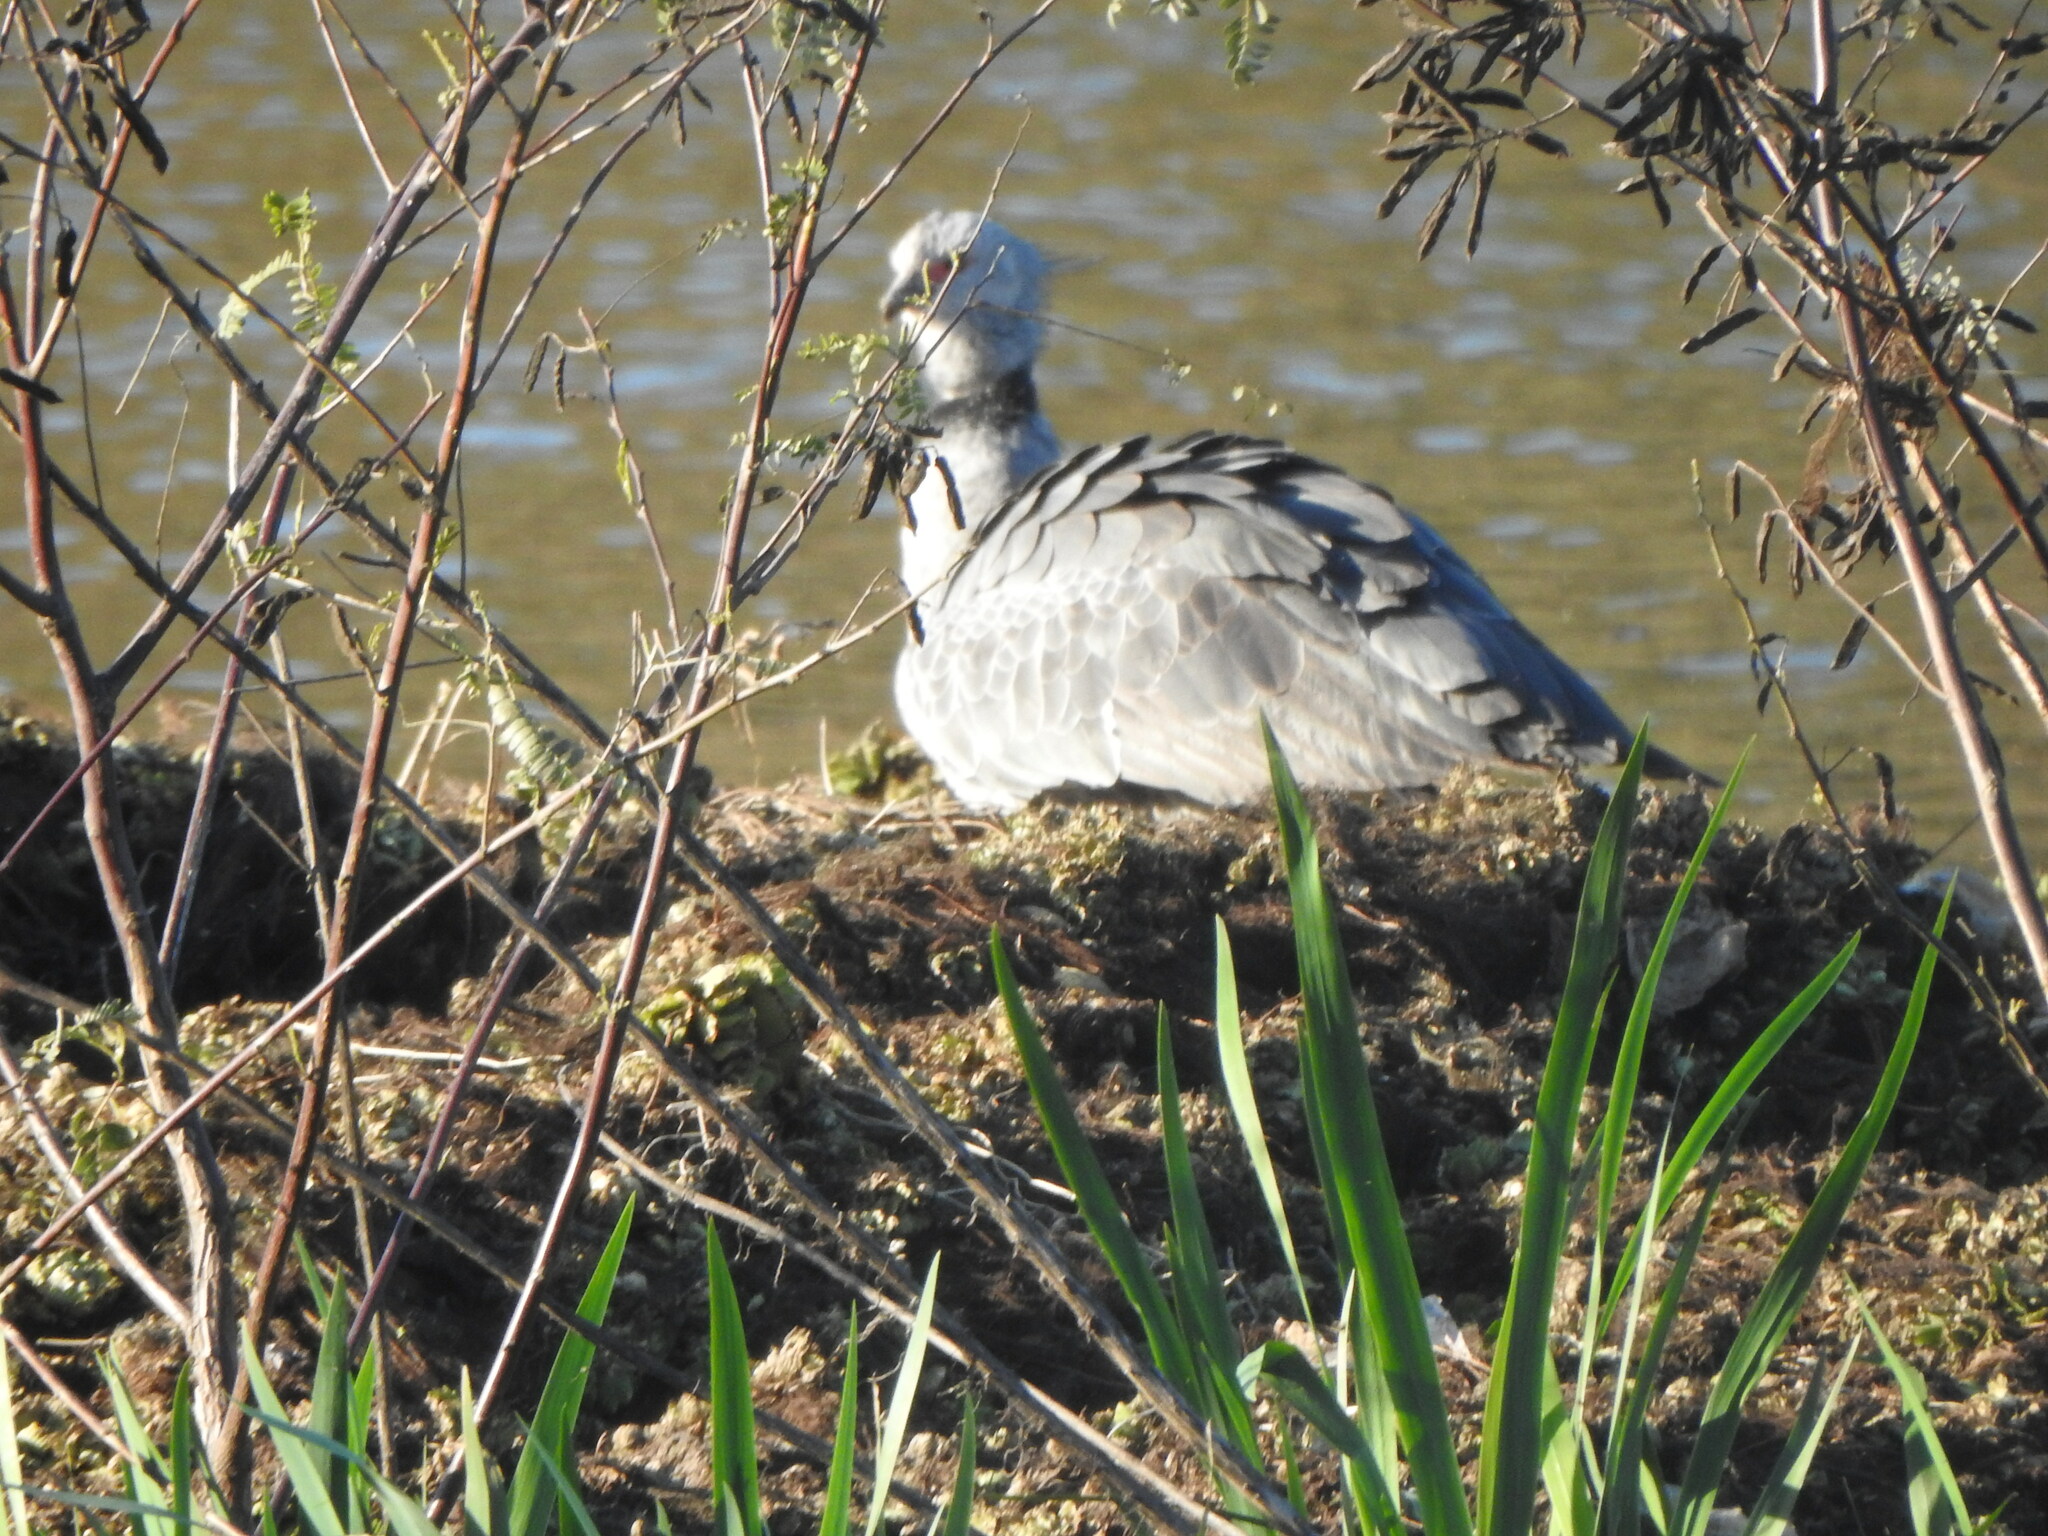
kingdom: Animalia
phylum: Chordata
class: Aves
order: Anseriformes
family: Anhimidae
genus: Chauna
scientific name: Chauna torquata
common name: Southern screamer
